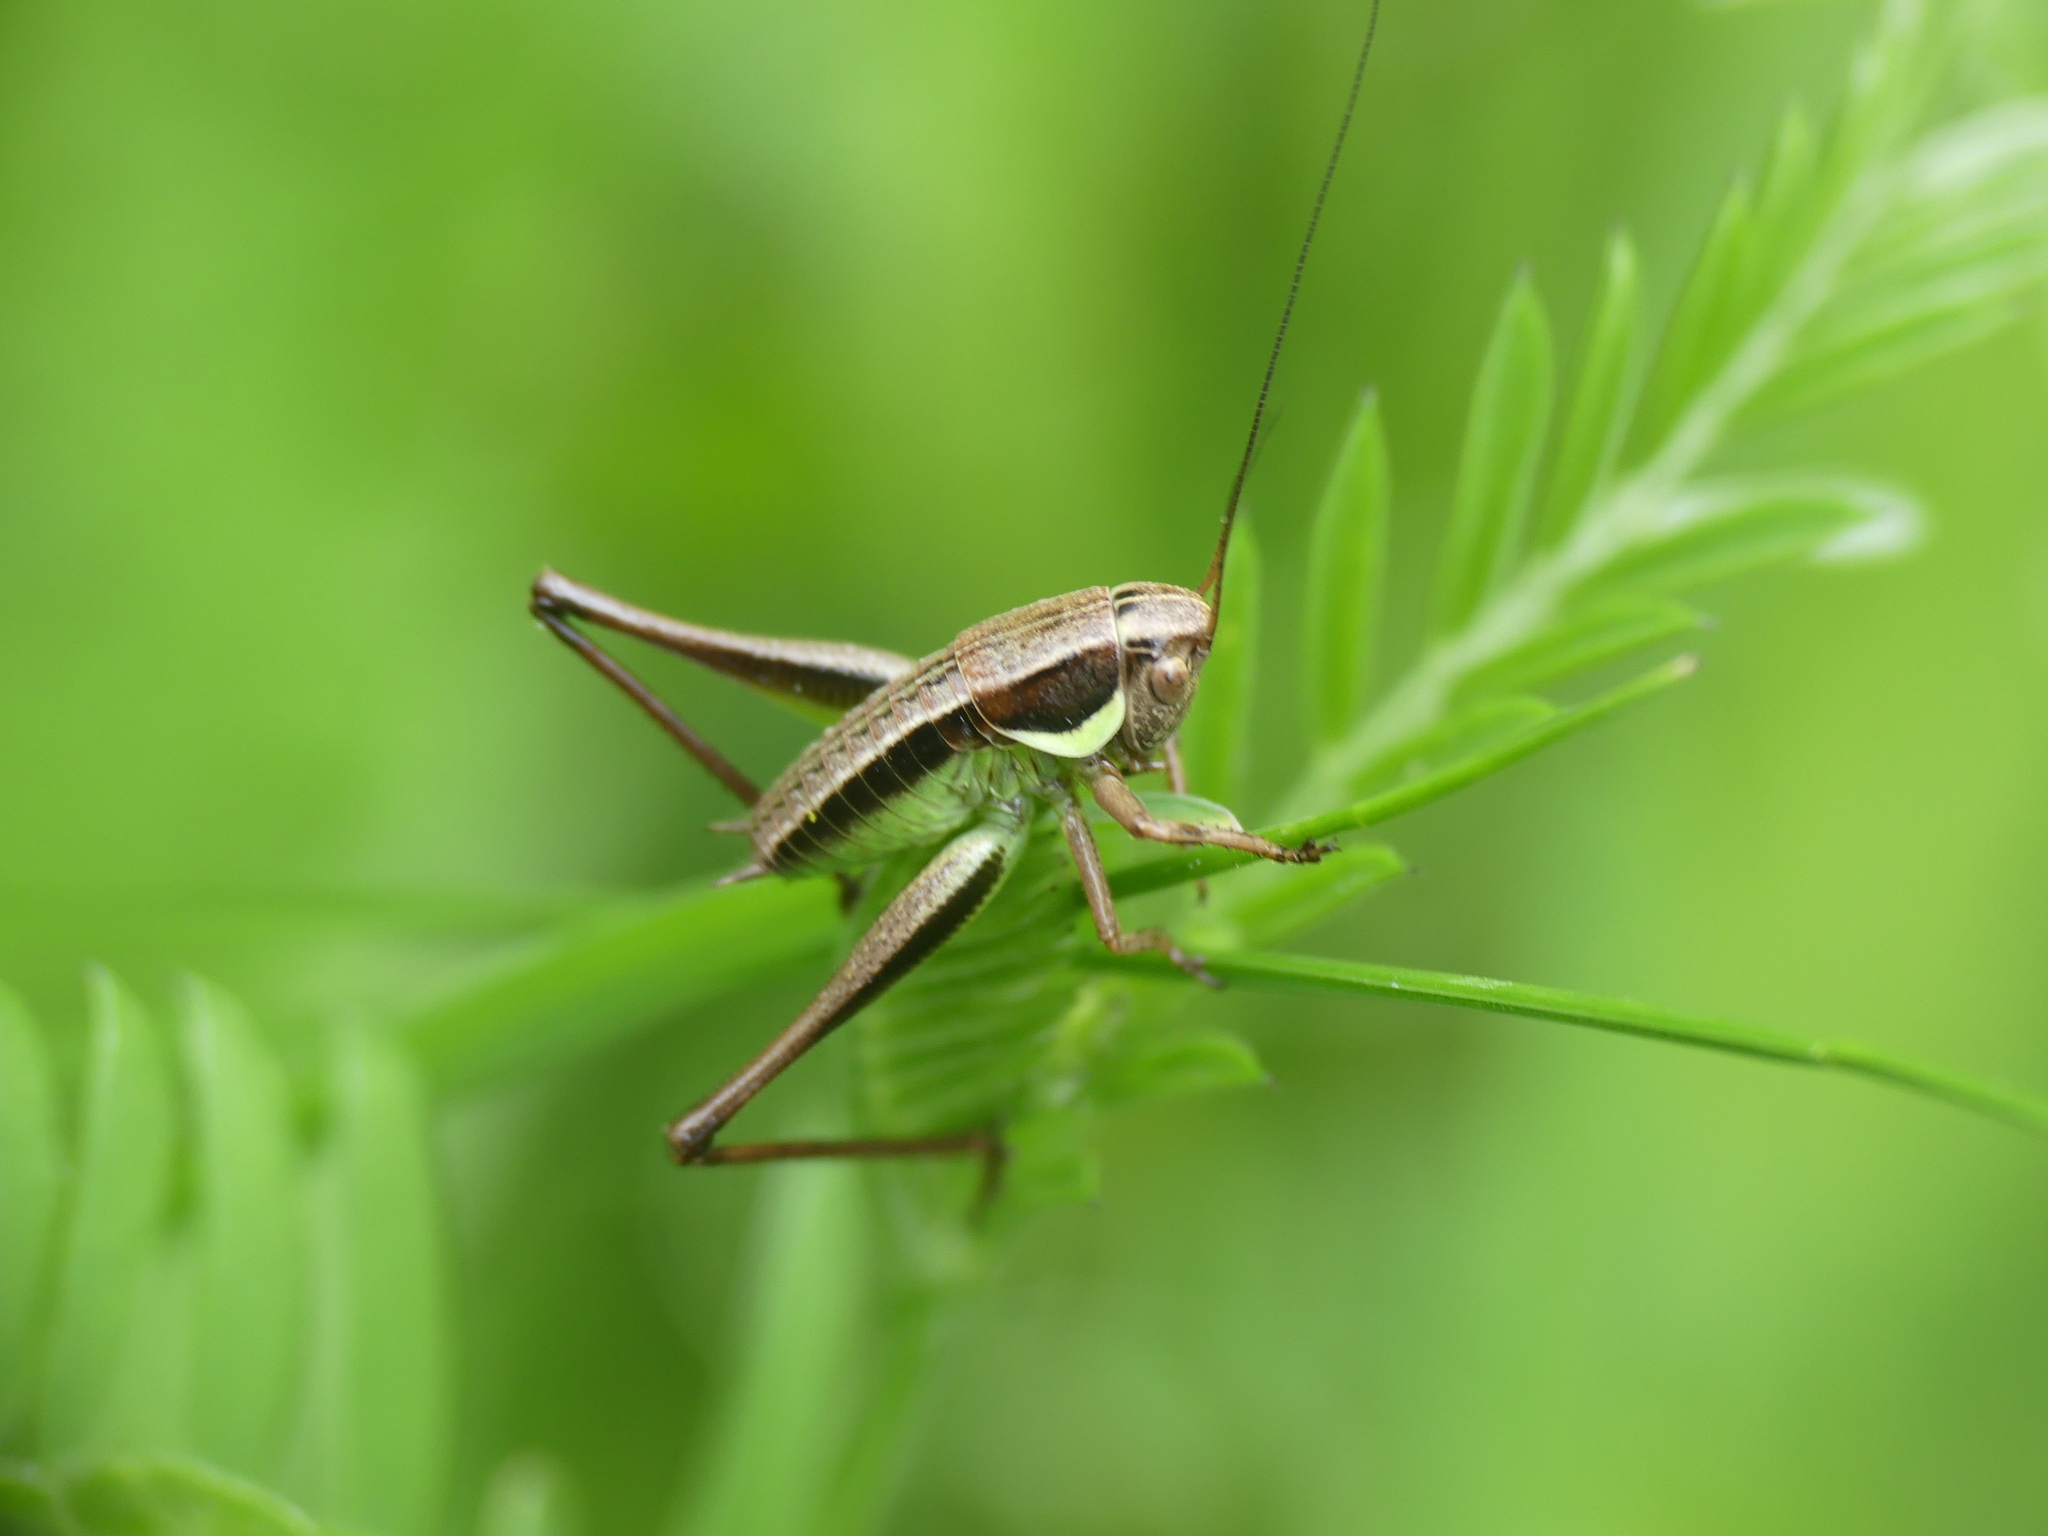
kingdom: Animalia
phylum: Arthropoda
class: Insecta
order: Orthoptera
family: Tettigoniidae
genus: Pholidoptera
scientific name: Pholidoptera littoralis
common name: Littoral dark bush-cricket
